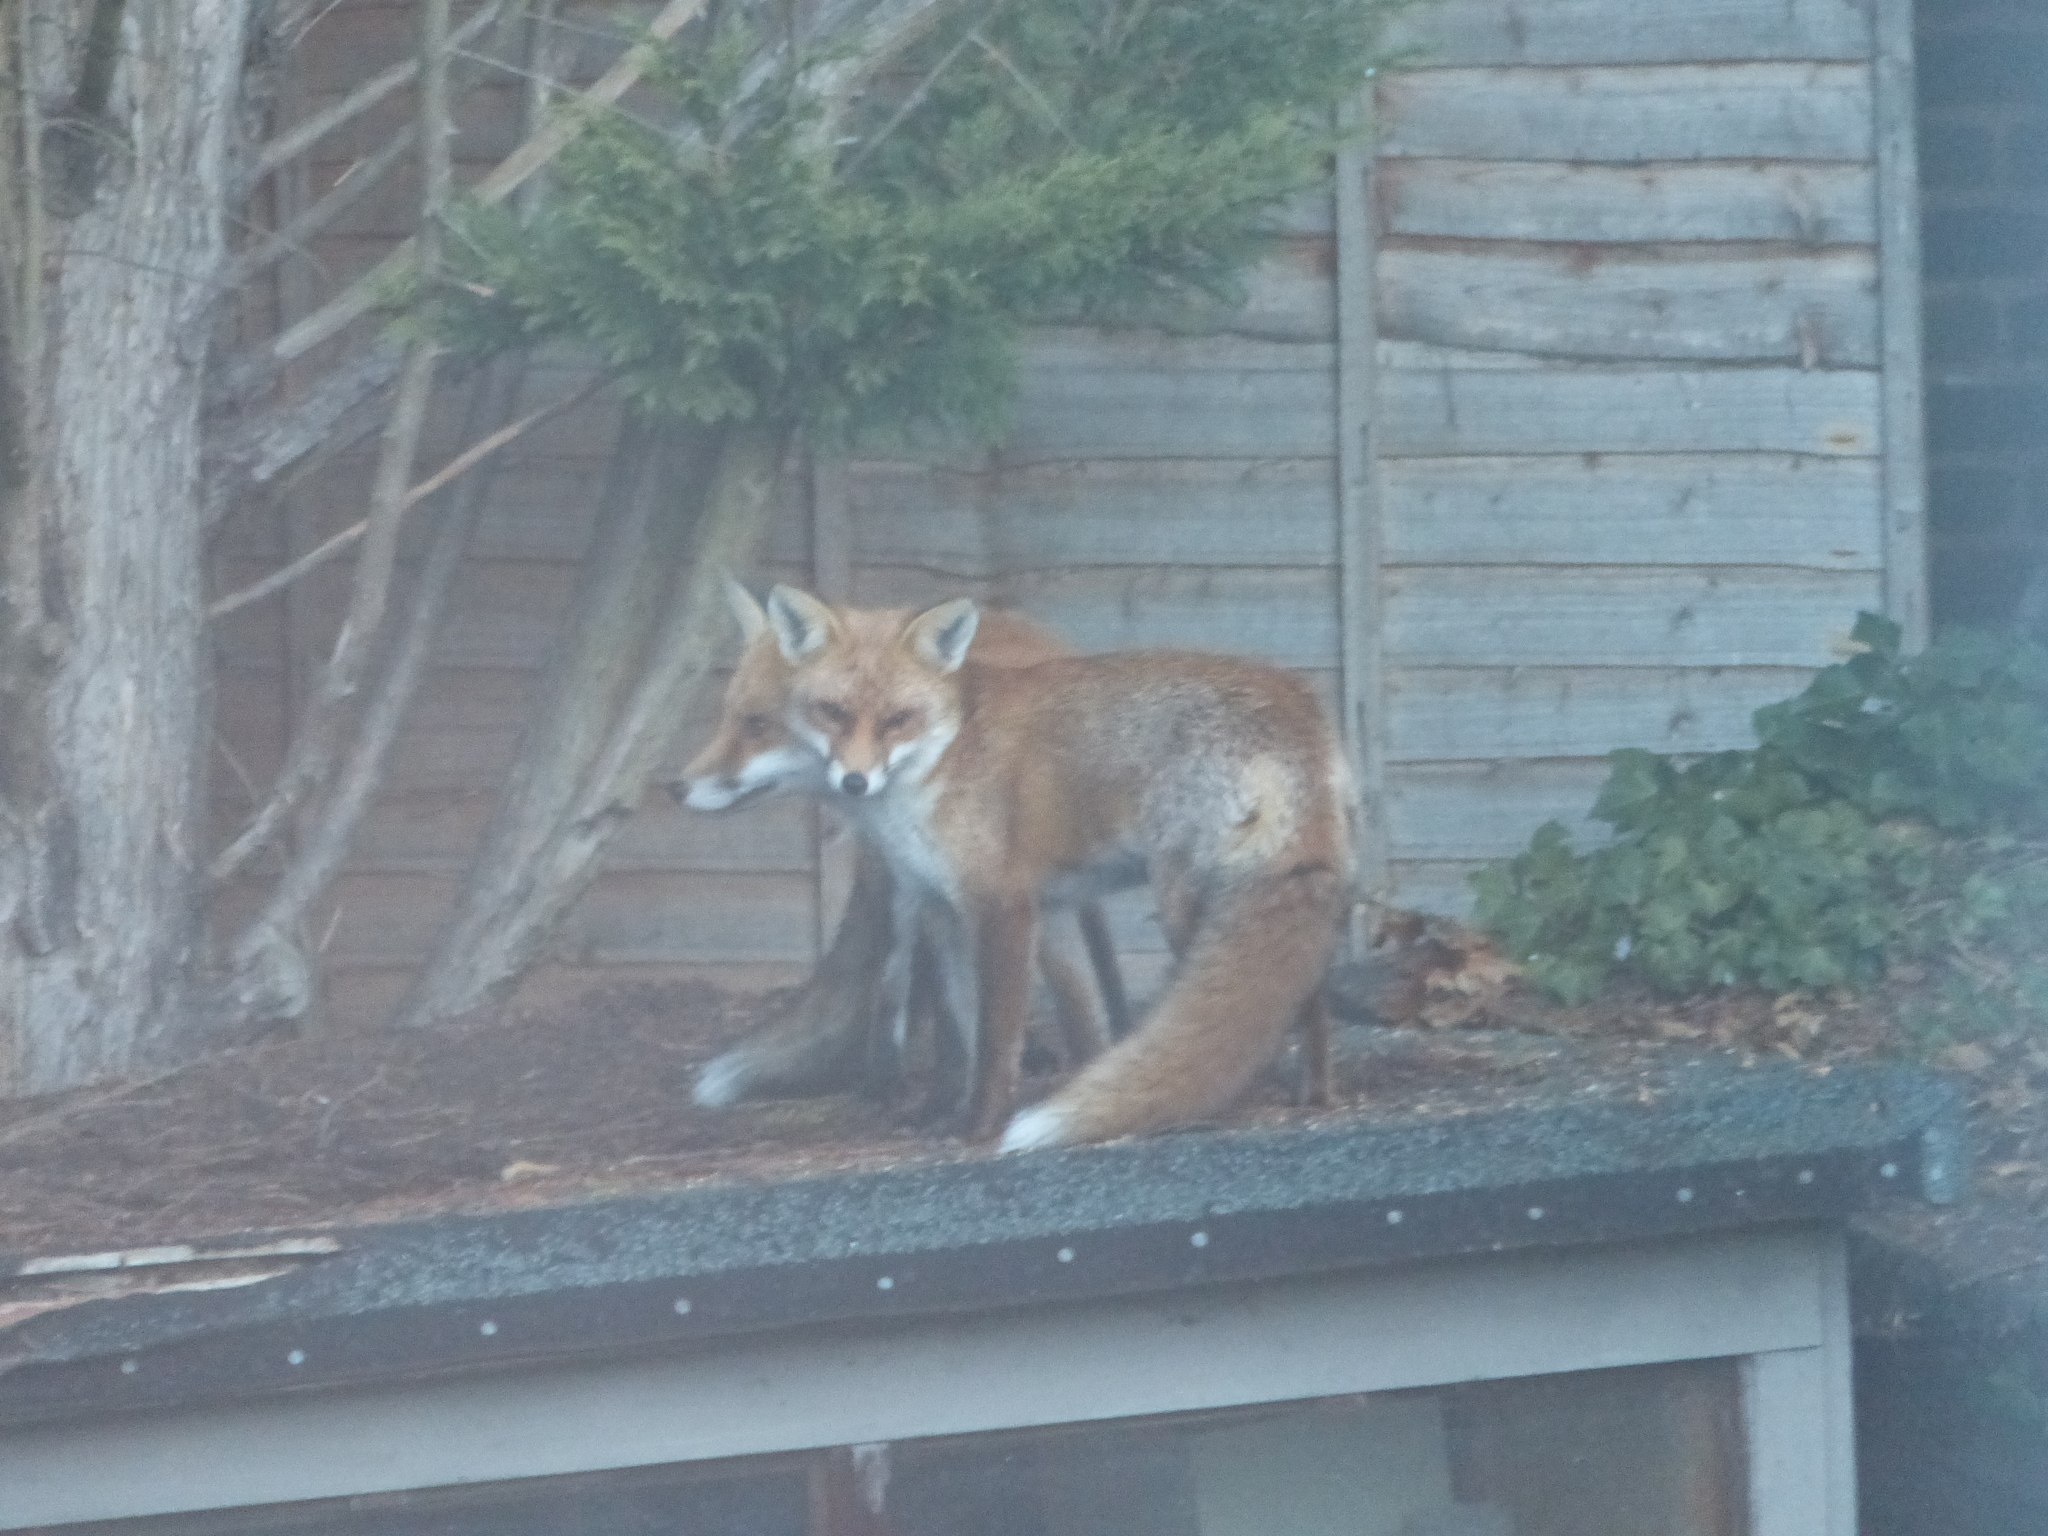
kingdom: Animalia
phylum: Chordata
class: Mammalia
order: Carnivora
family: Canidae
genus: Vulpes
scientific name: Vulpes vulpes
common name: Red fox
